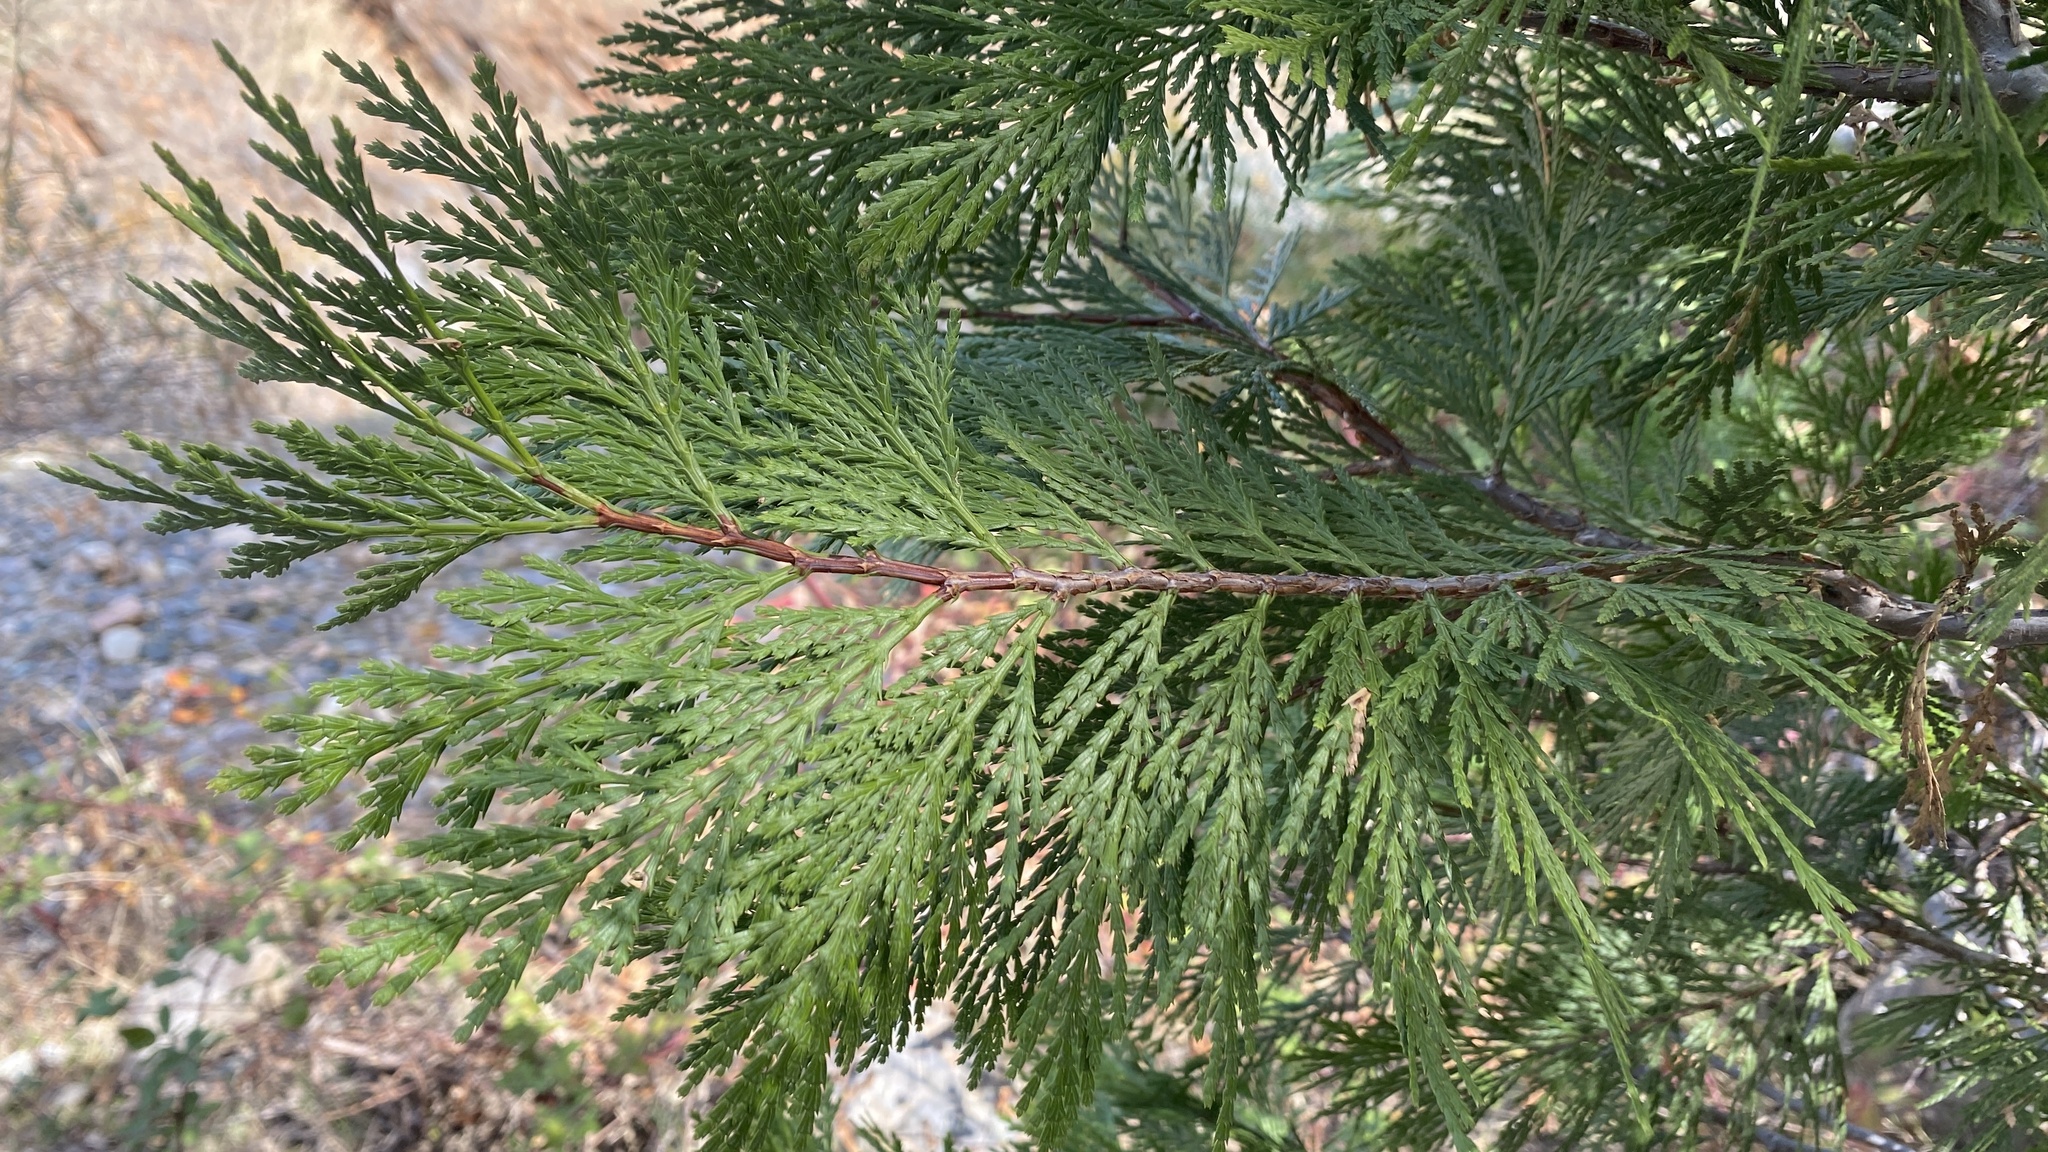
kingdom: Plantae
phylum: Tracheophyta
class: Pinopsida
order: Pinales
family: Cupressaceae
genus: Calocedrus
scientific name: Calocedrus decurrens
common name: Californian incense-cedar
